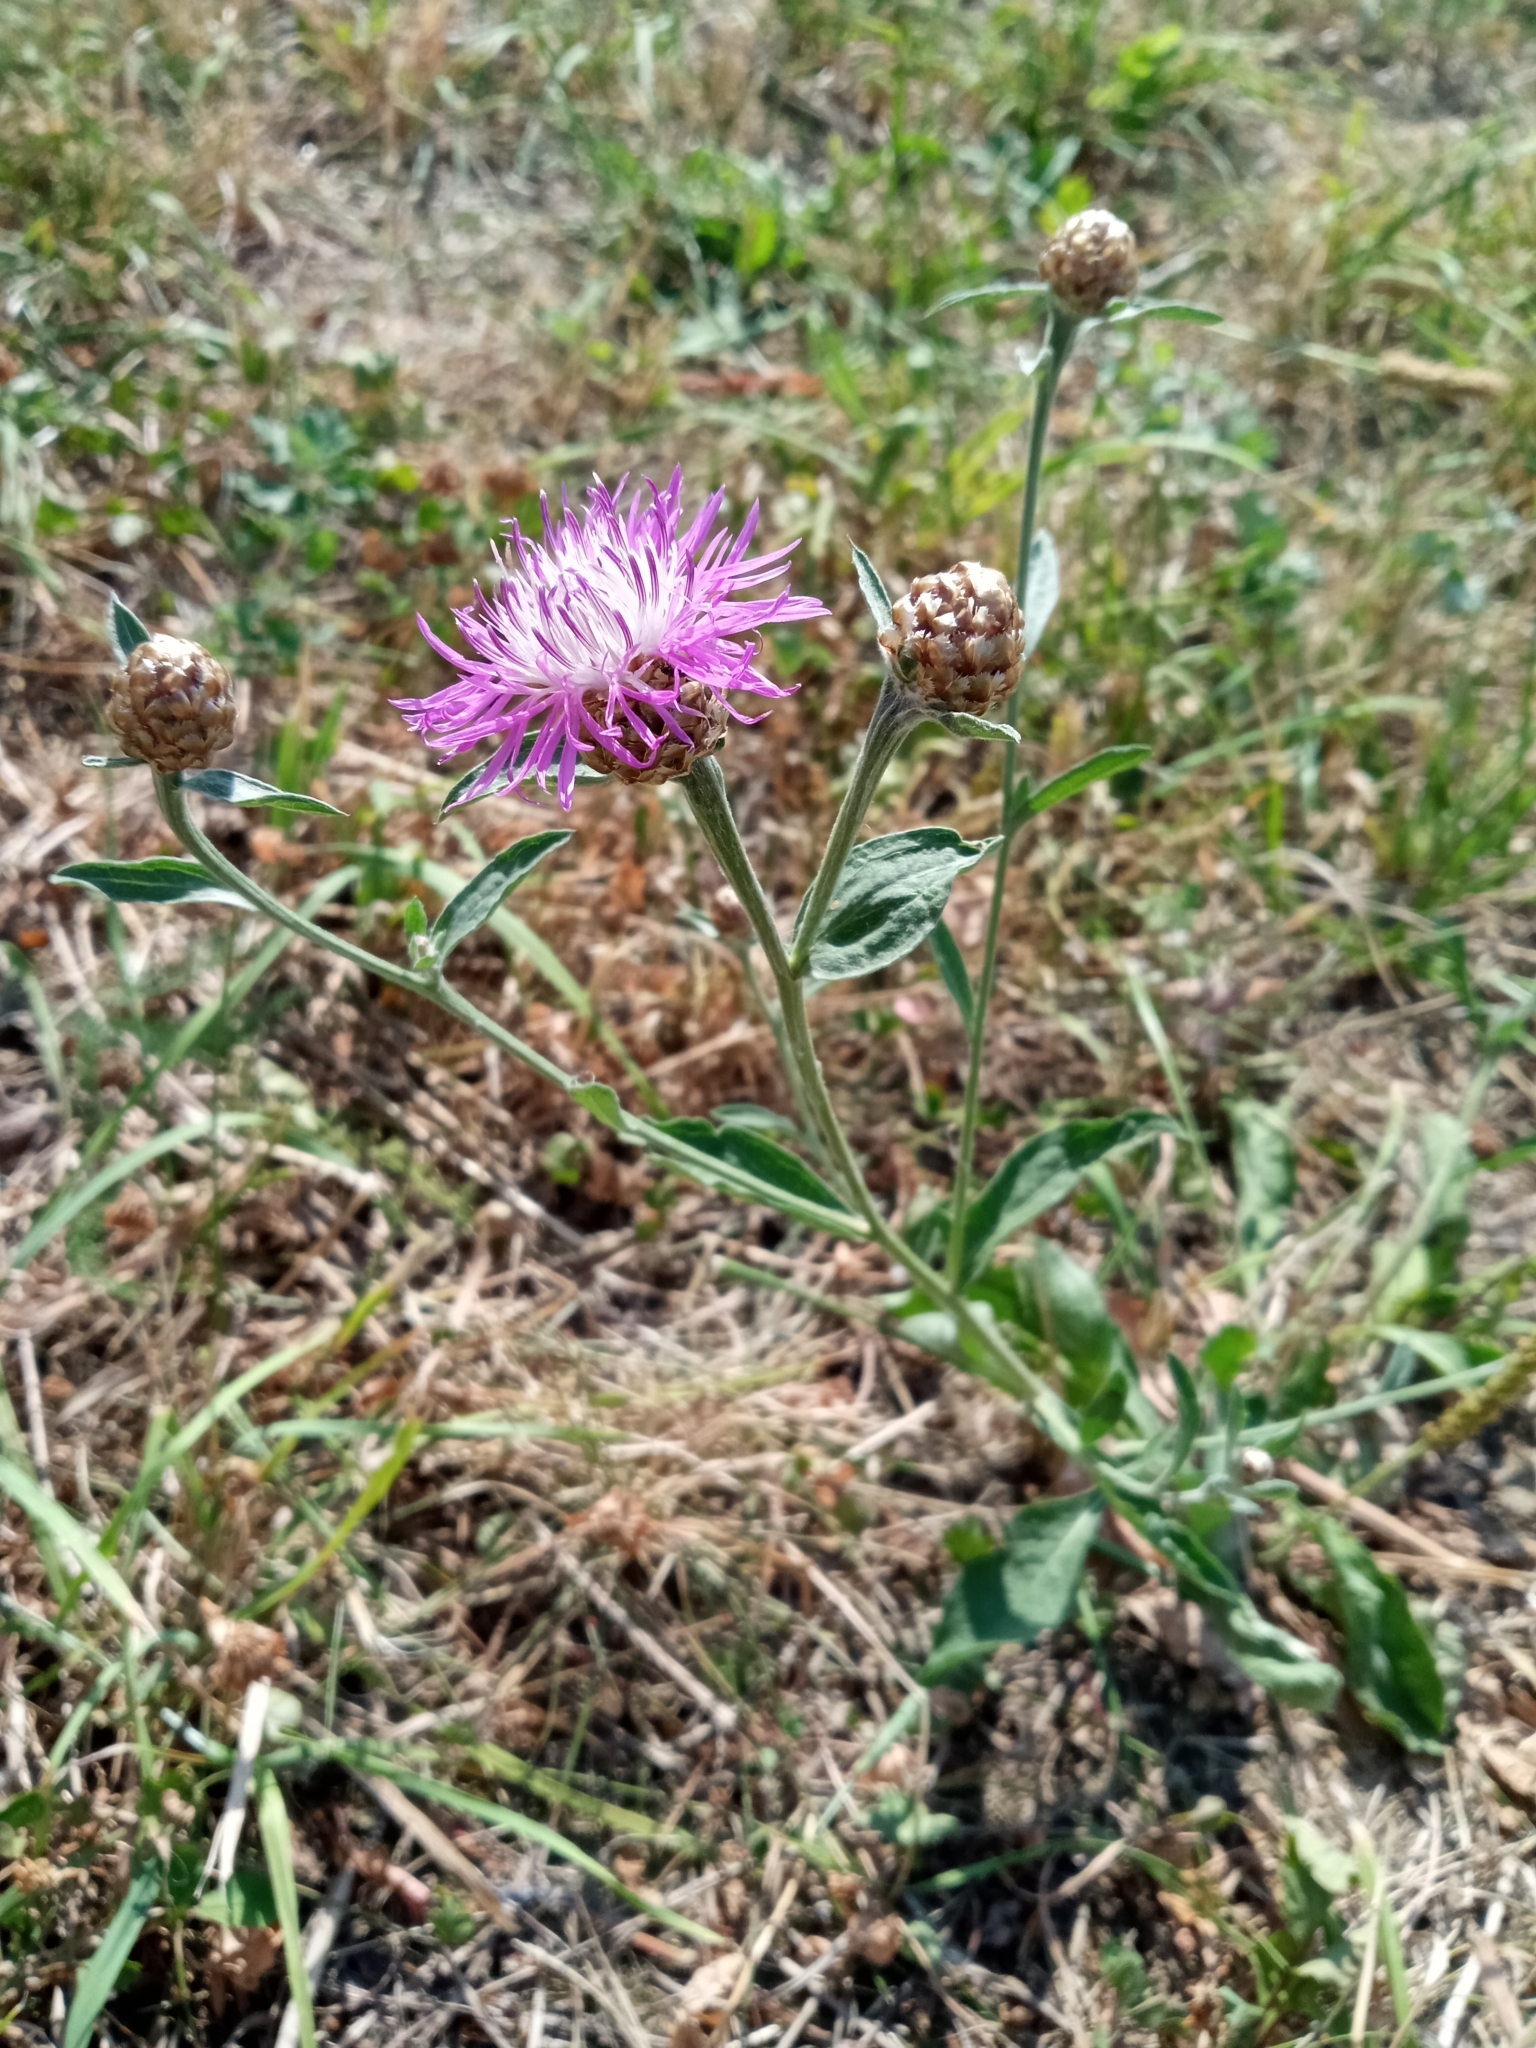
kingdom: Plantae
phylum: Tracheophyta
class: Magnoliopsida
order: Asterales
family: Asteraceae
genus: Centaurea
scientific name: Centaurea jacea
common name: Brown knapweed
